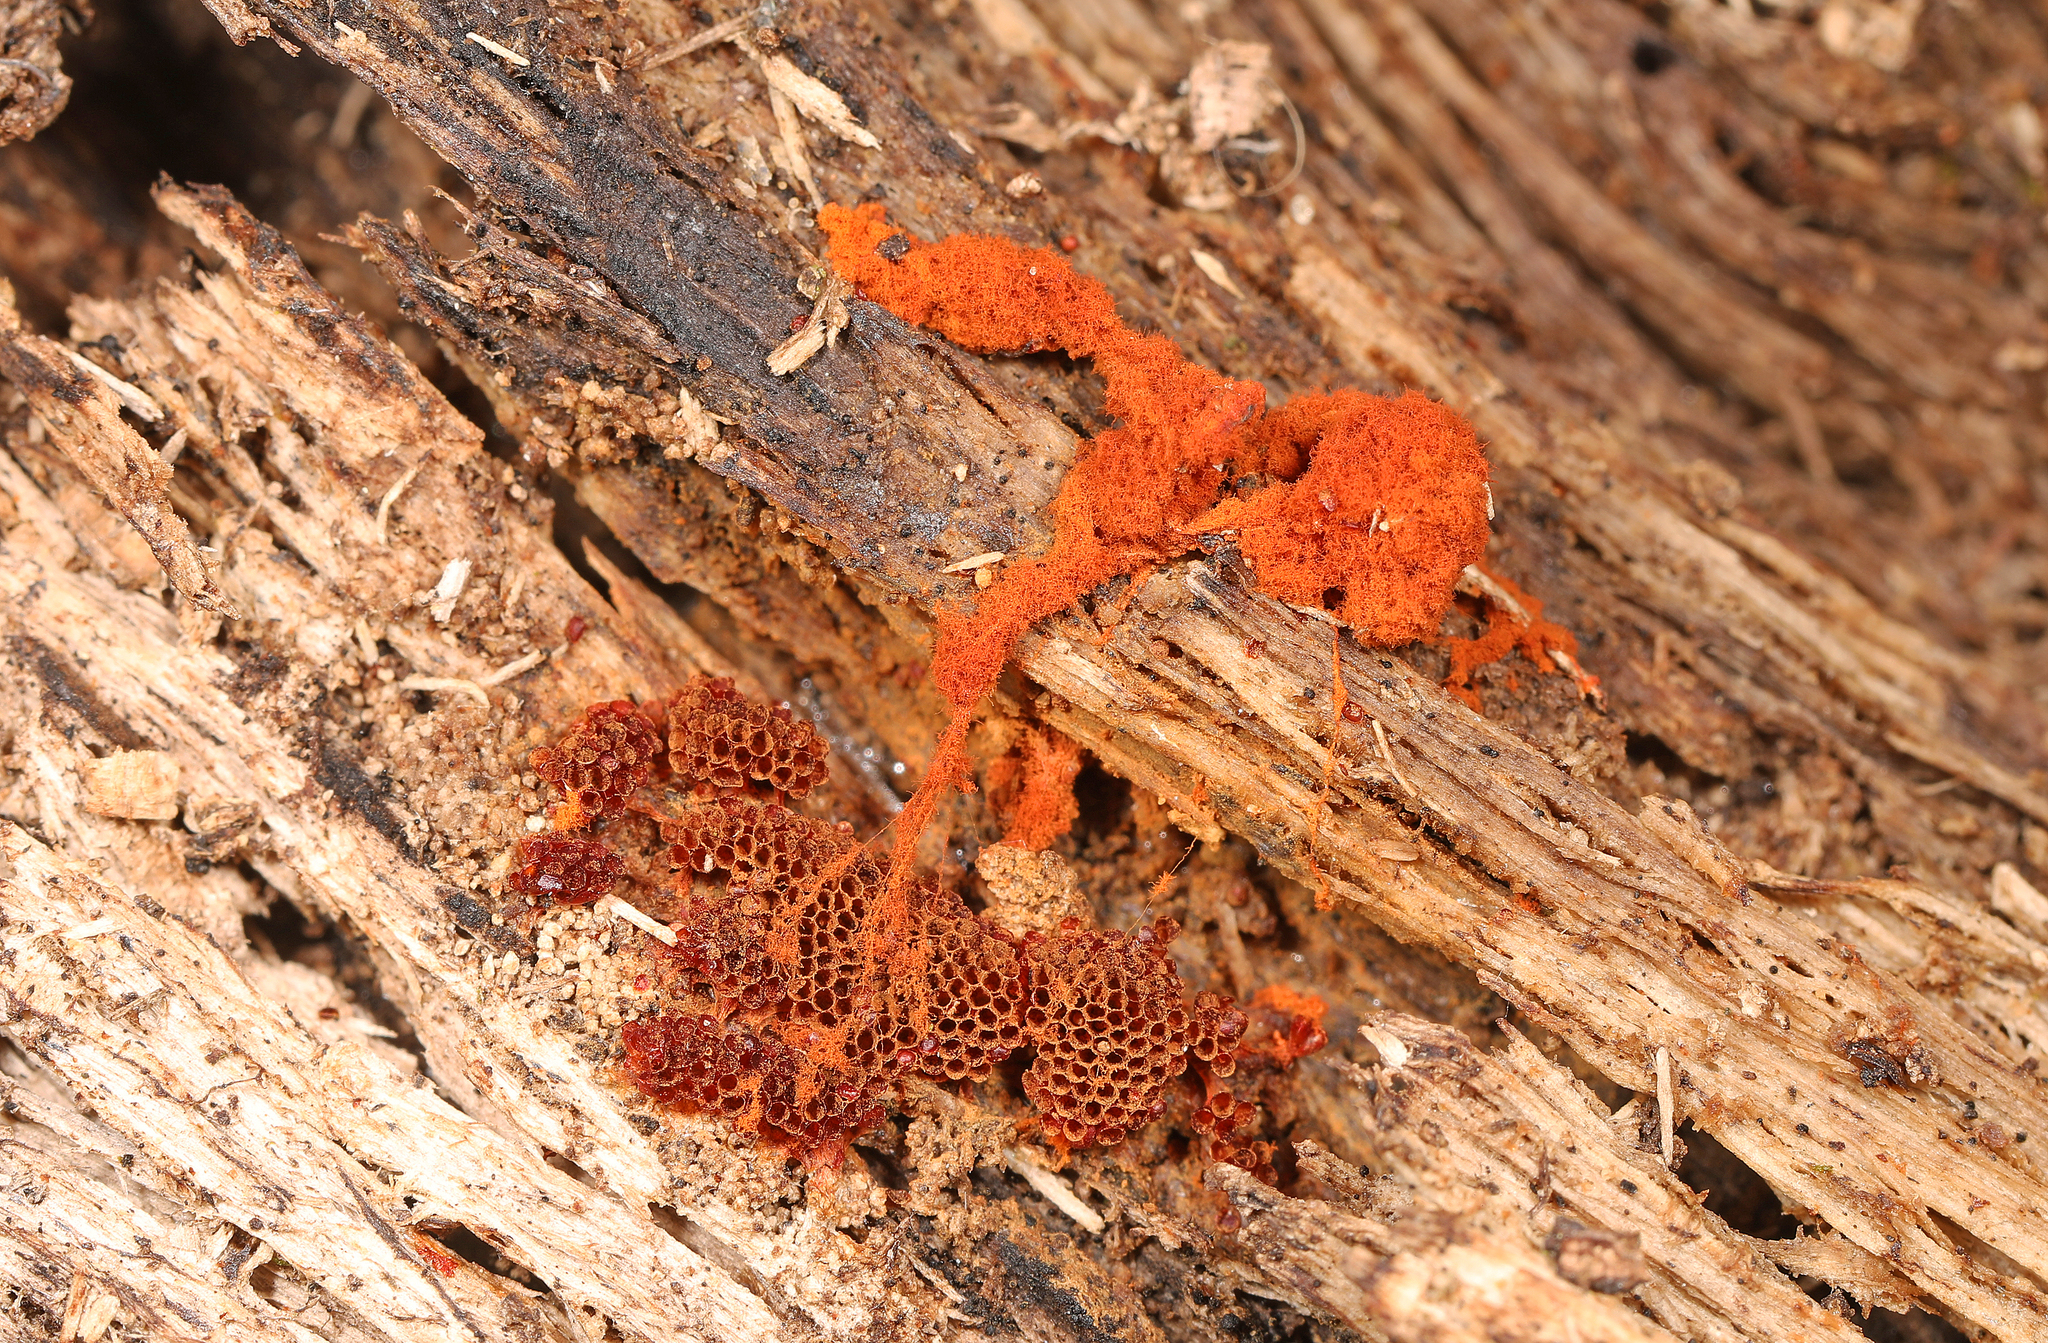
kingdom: Protozoa
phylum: Mycetozoa
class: Myxomycetes
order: Trichiales
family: Trichiaceae
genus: Metatrichia
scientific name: Metatrichia vesparia
